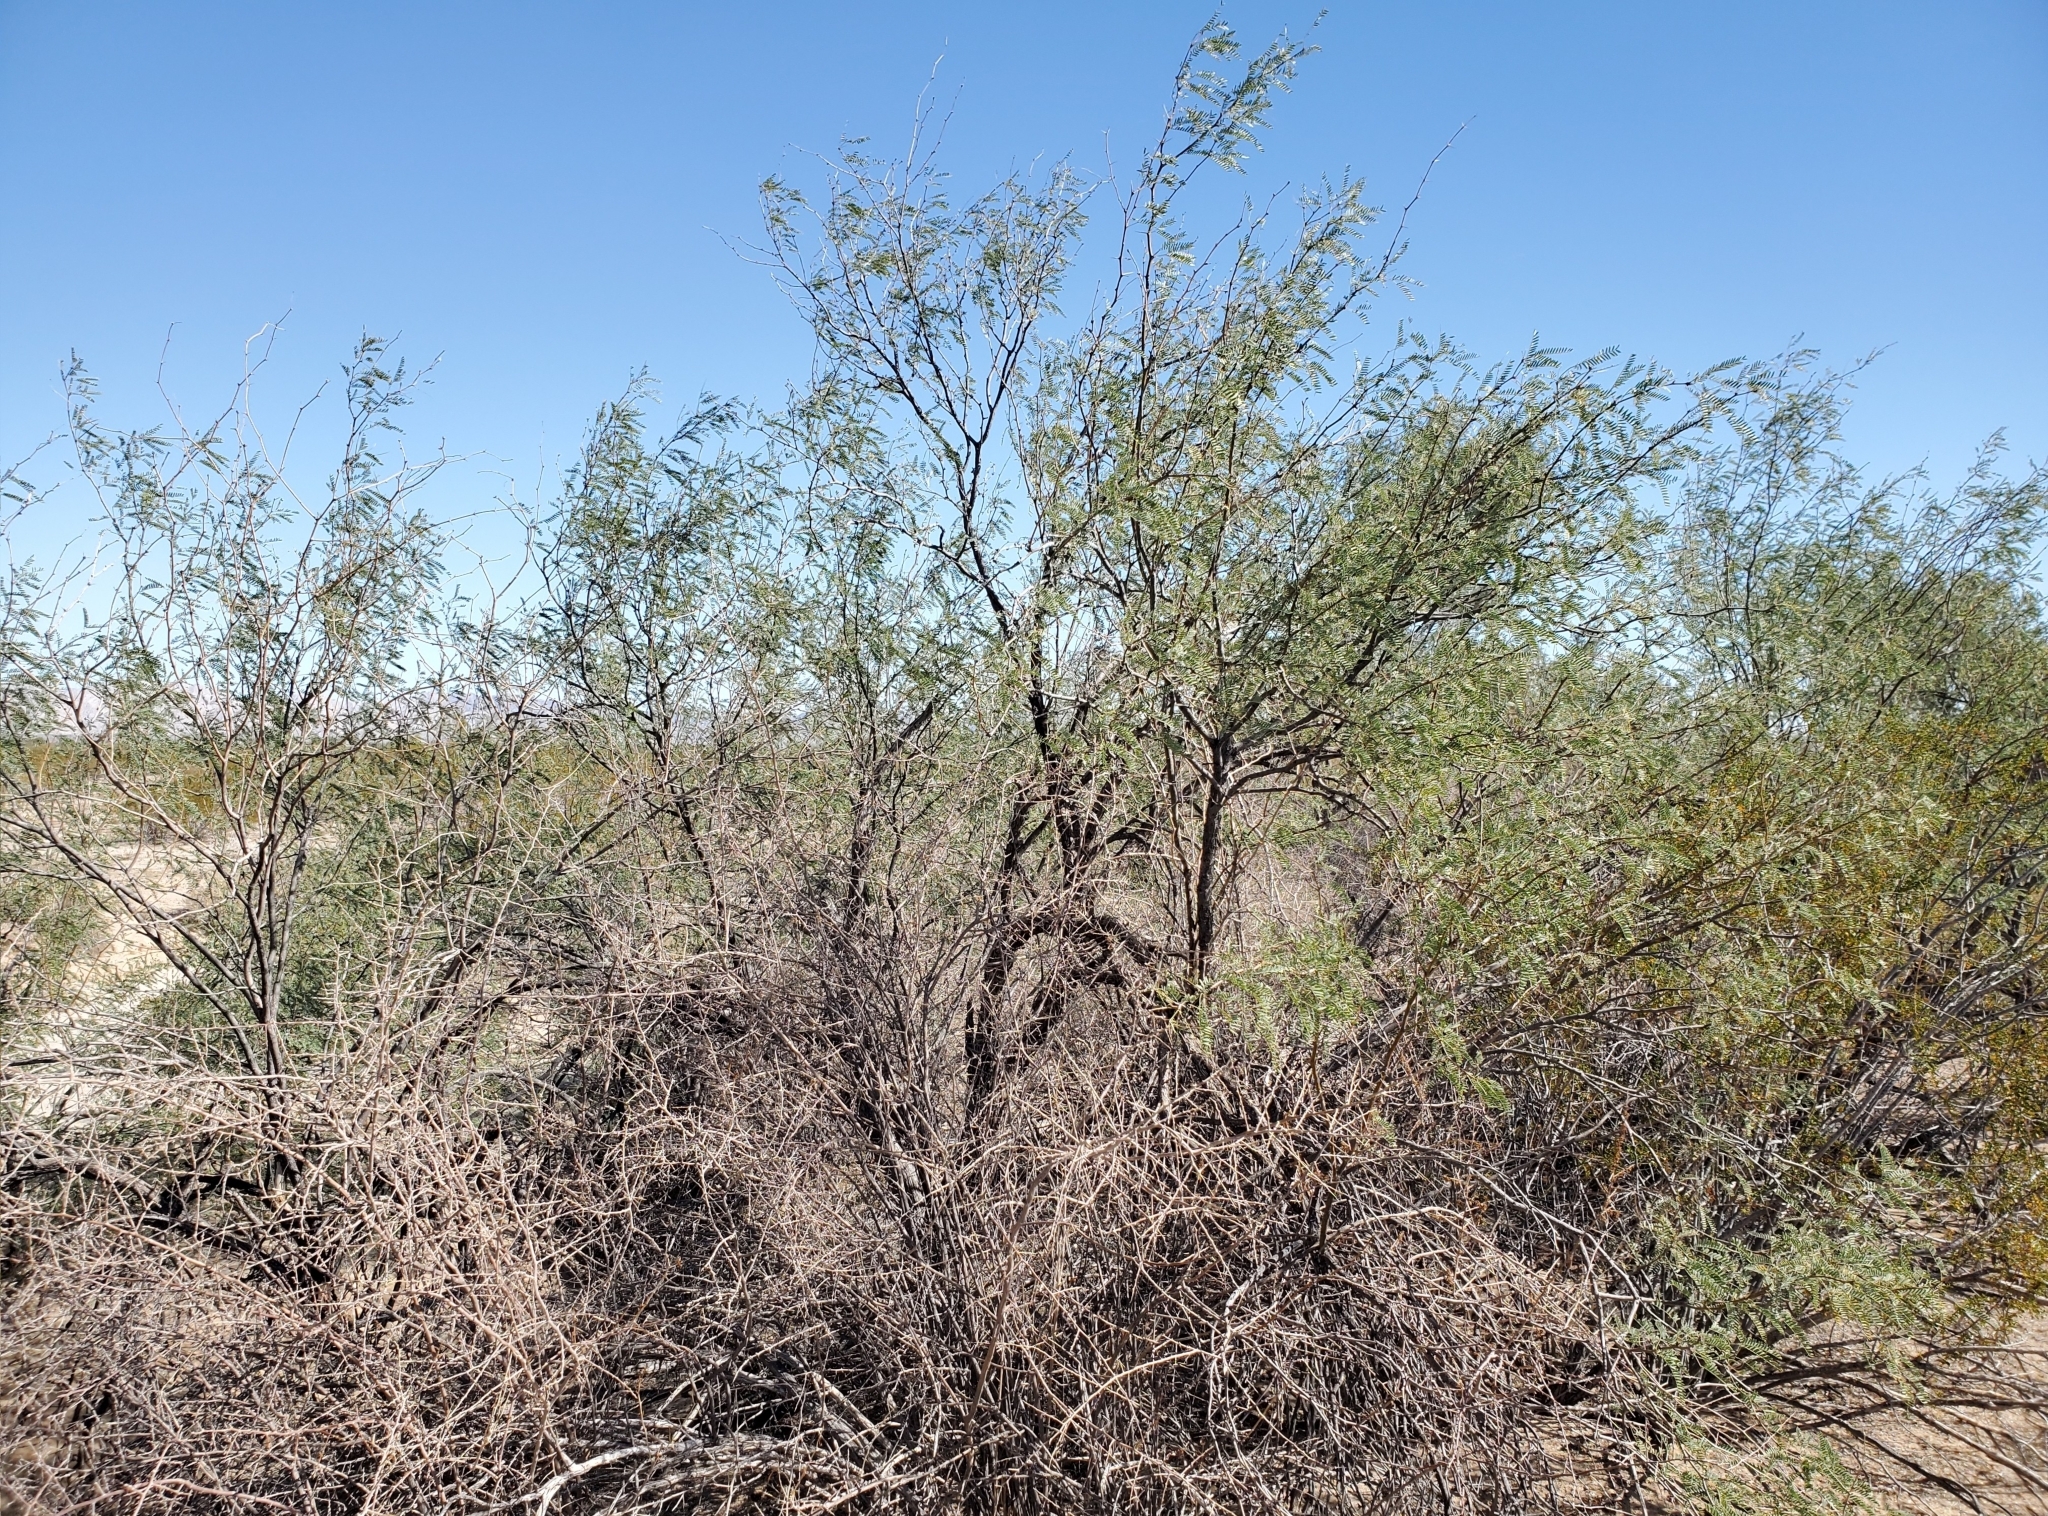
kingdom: Plantae
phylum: Tracheophyta
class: Magnoliopsida
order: Fabales
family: Fabaceae
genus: Prosopis
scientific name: Prosopis velutina
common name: Velvet mesquite
